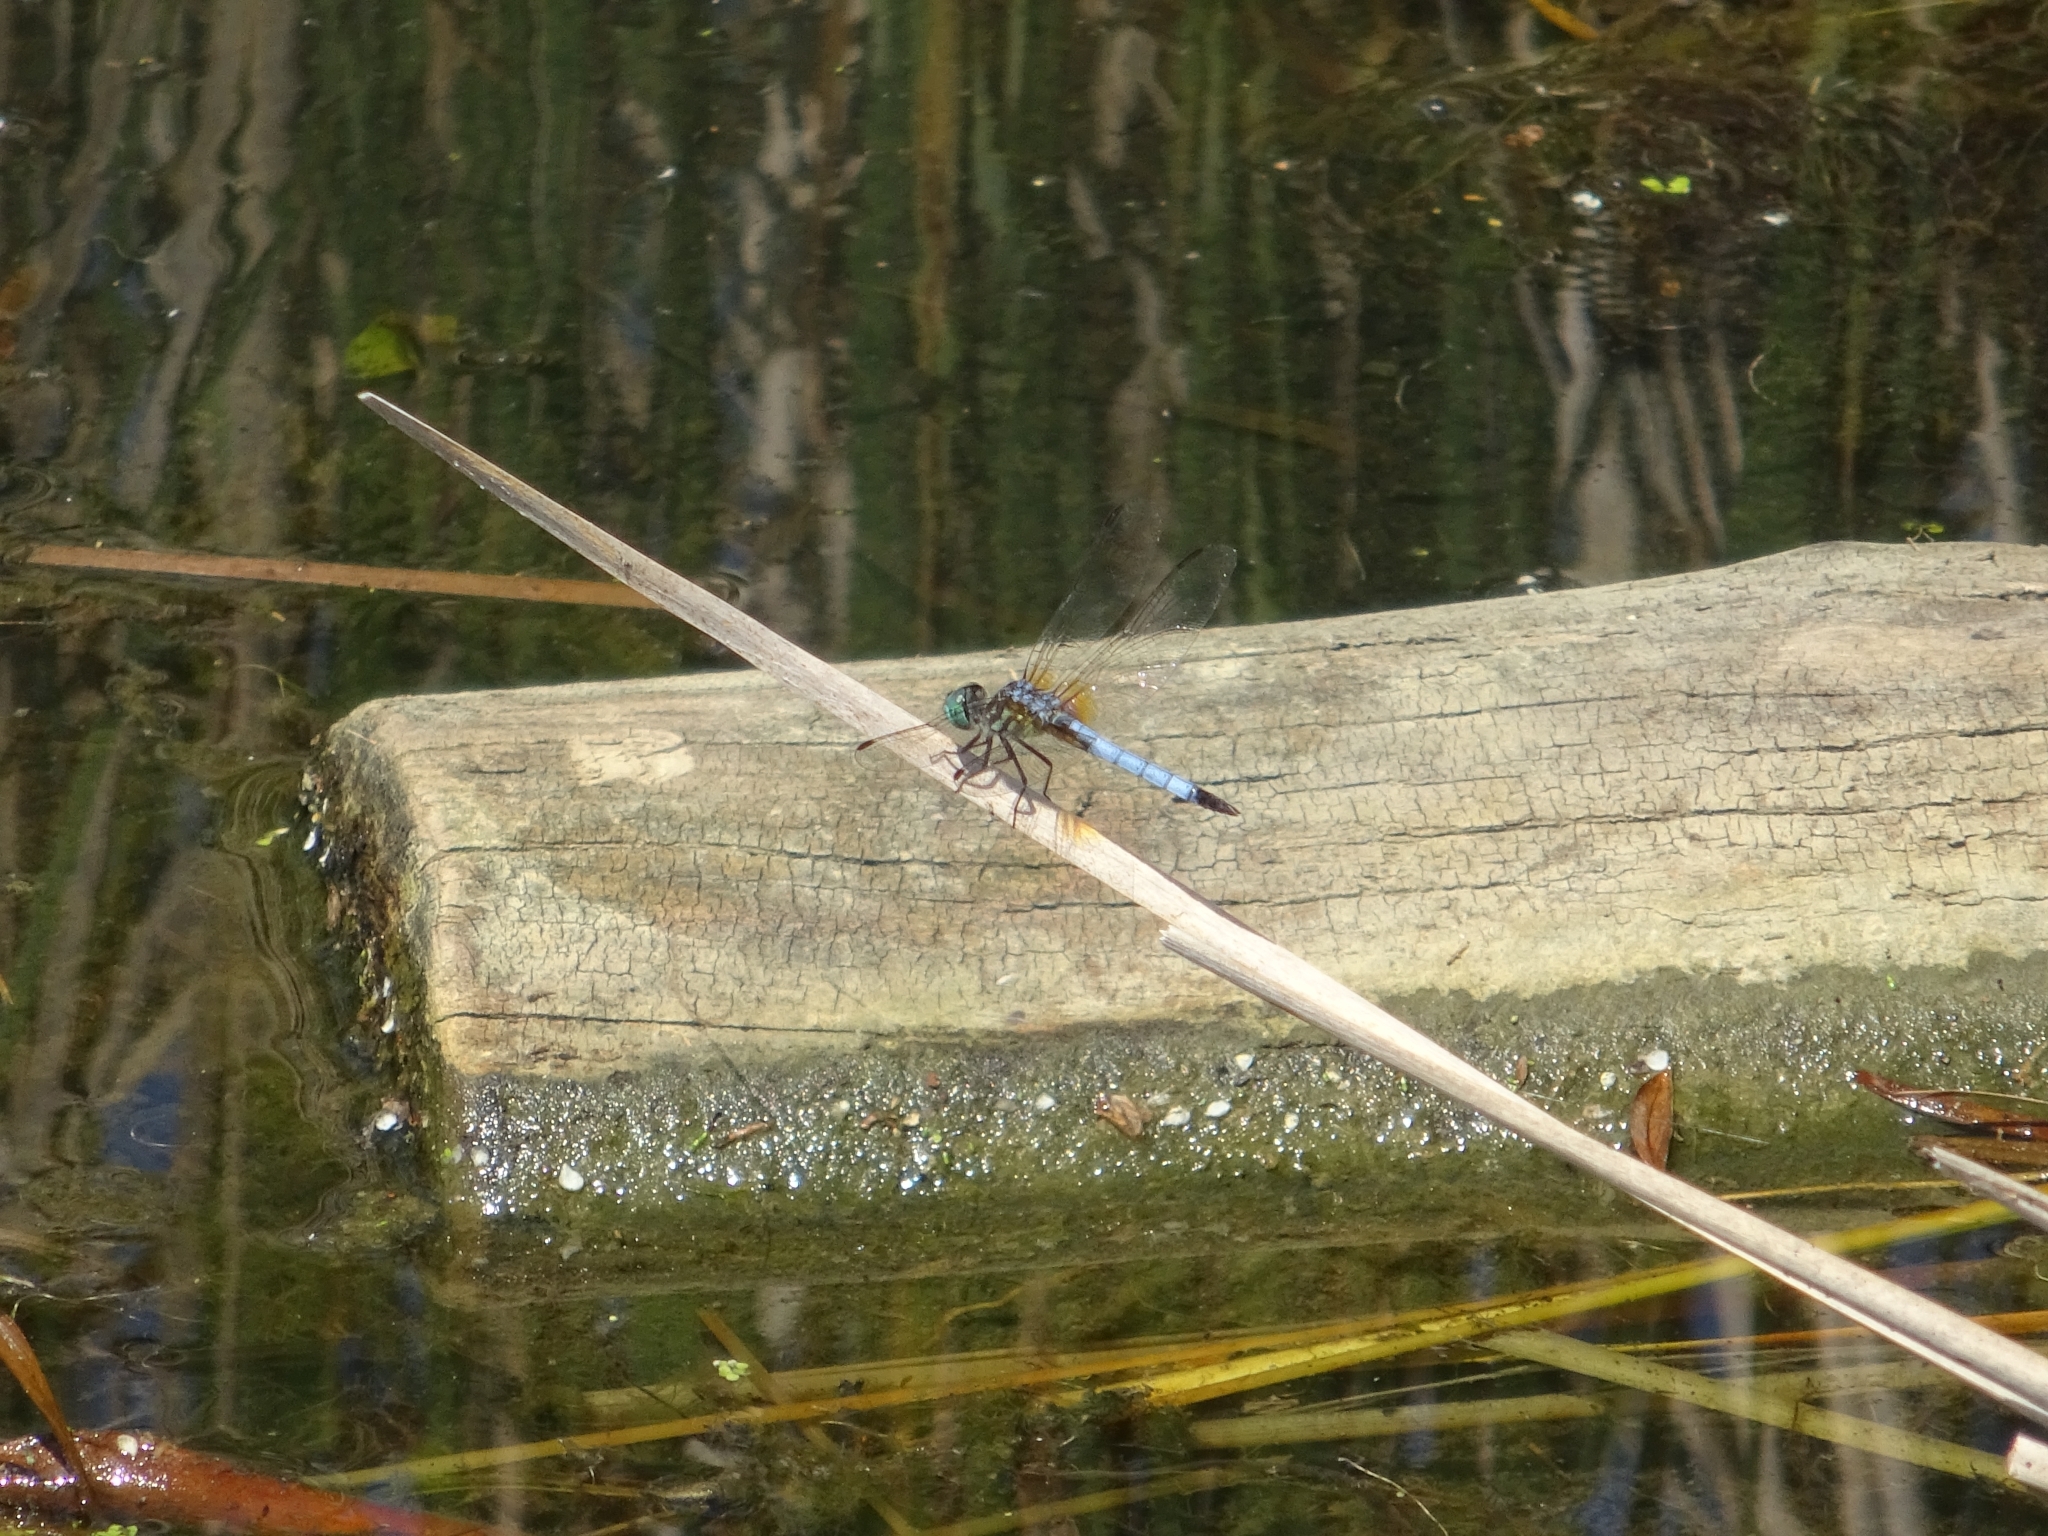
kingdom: Animalia
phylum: Arthropoda
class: Insecta
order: Odonata
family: Libellulidae
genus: Pachydiplax
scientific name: Pachydiplax longipennis
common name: Blue dasher
